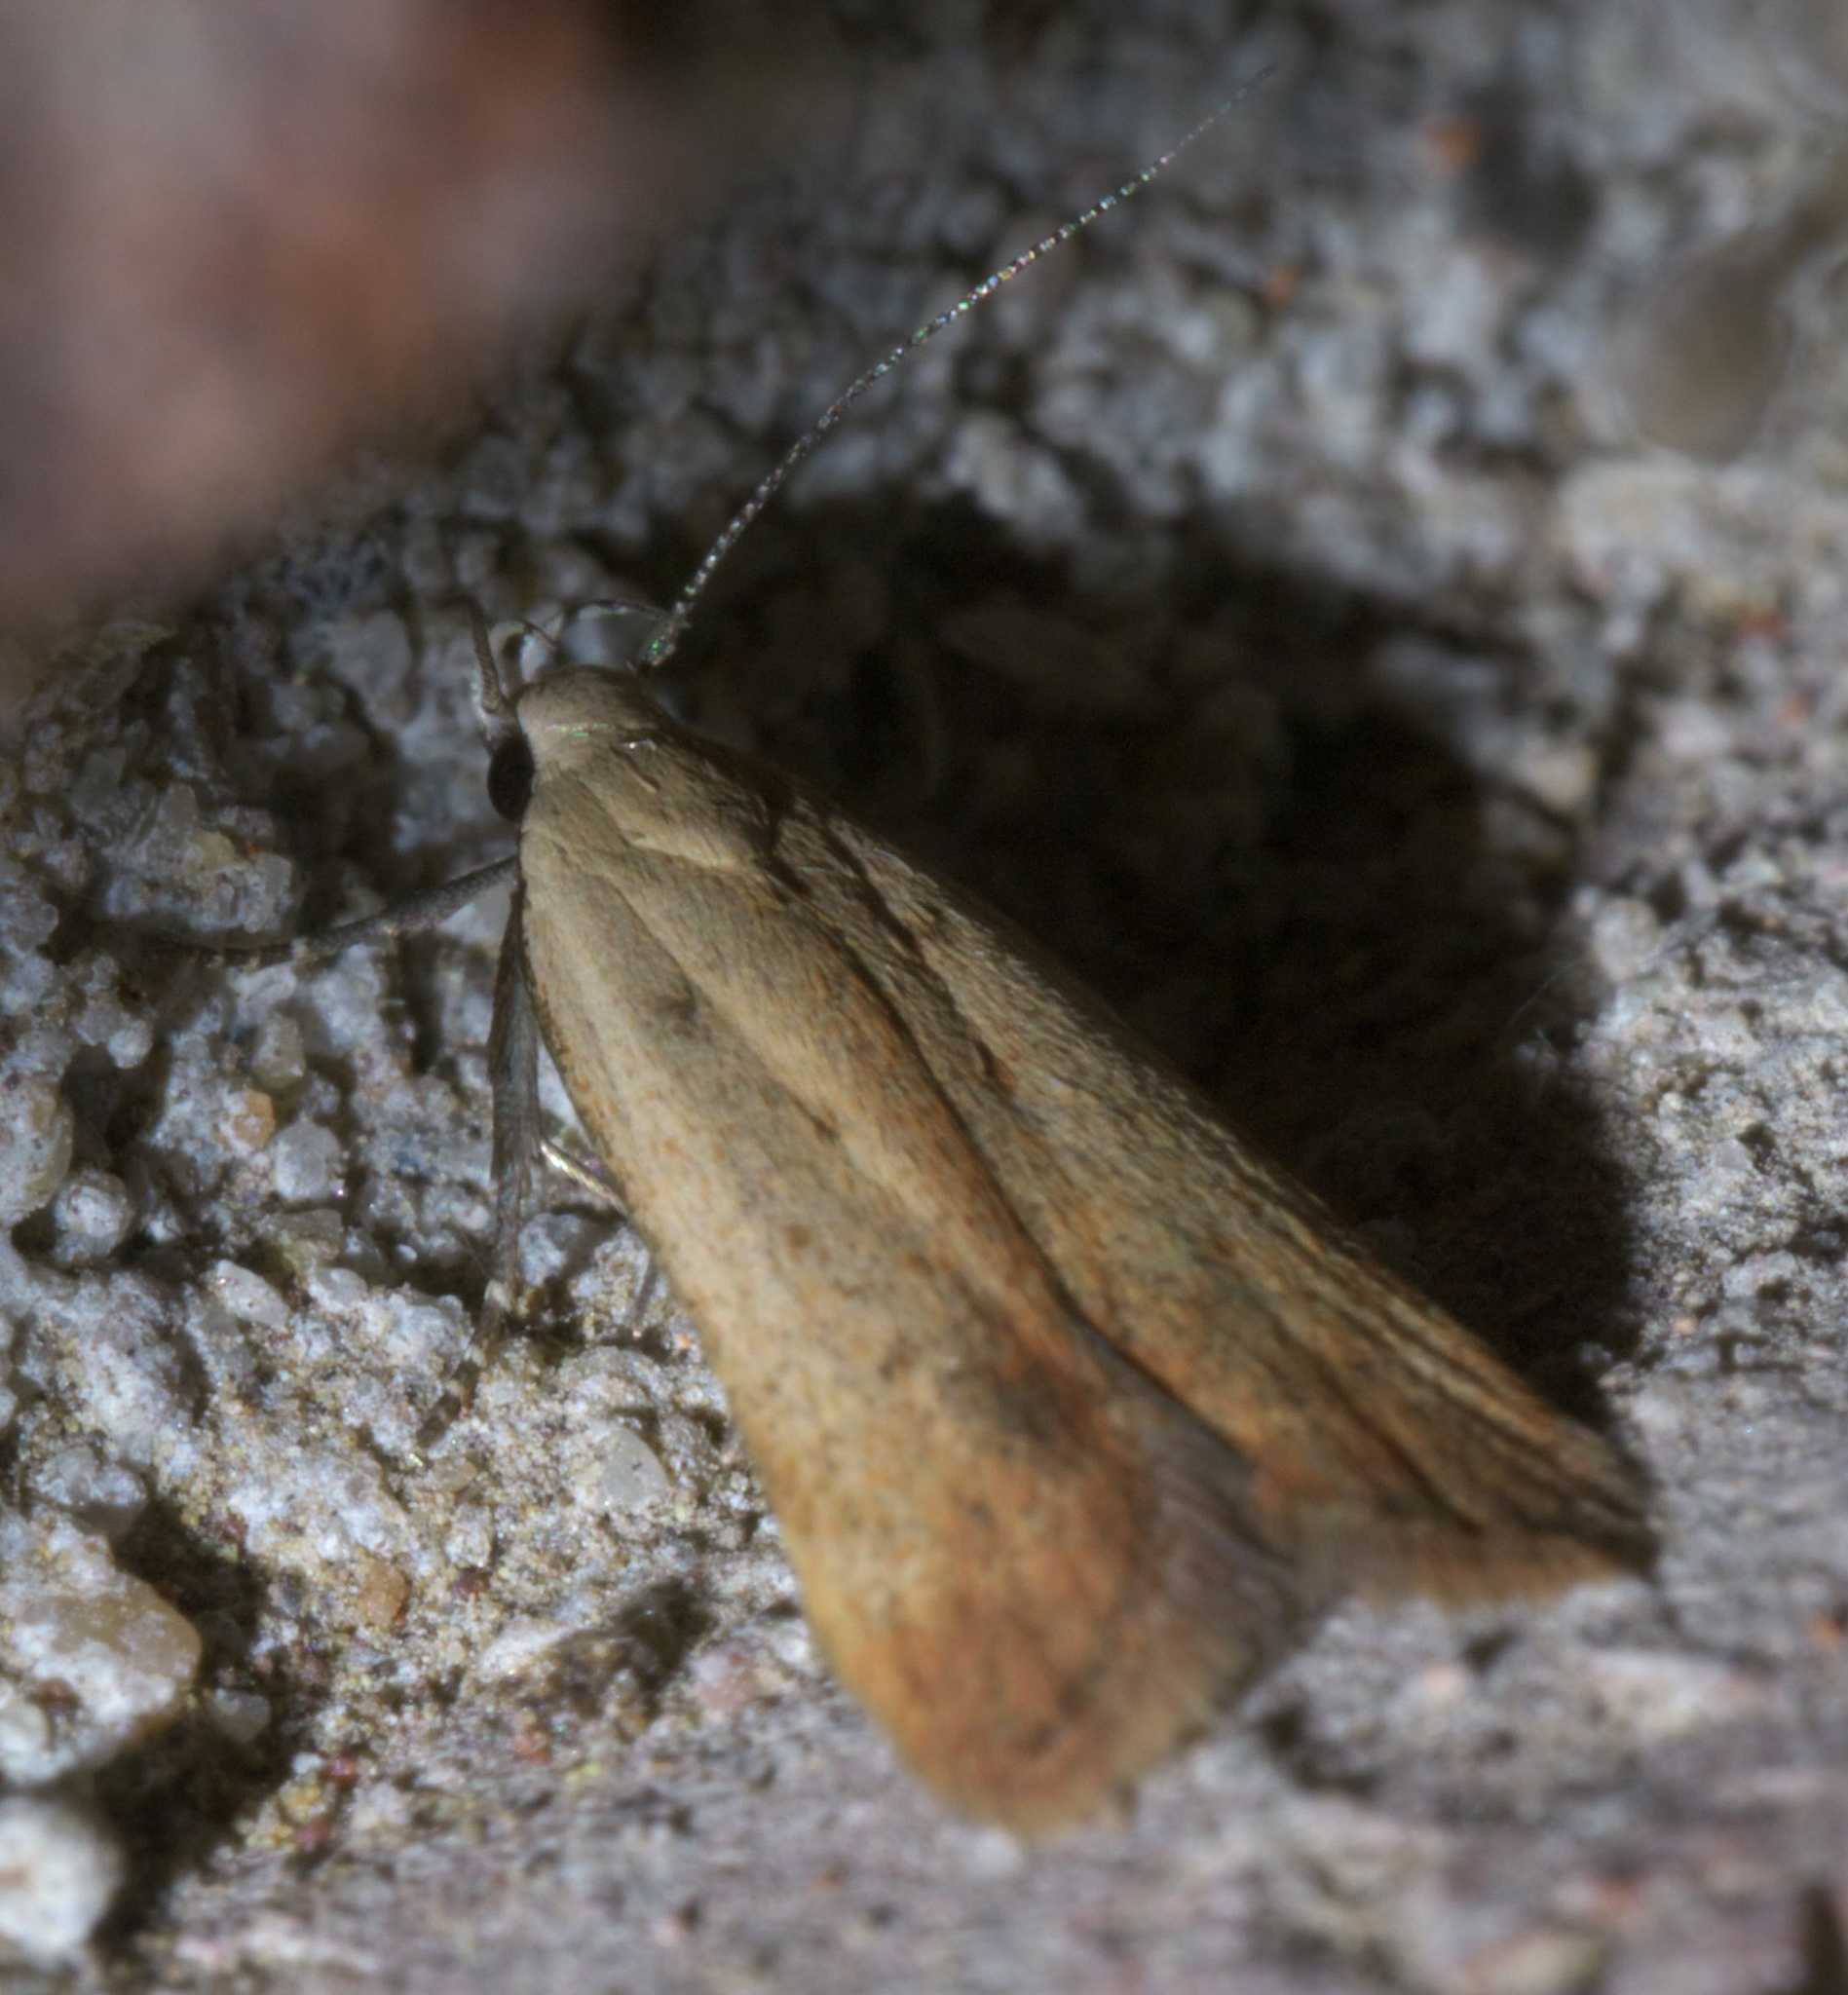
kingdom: Animalia
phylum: Arthropoda
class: Insecta
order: Lepidoptera
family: Gelechiidae
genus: Anacampsis
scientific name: Anacampsis fullonella
